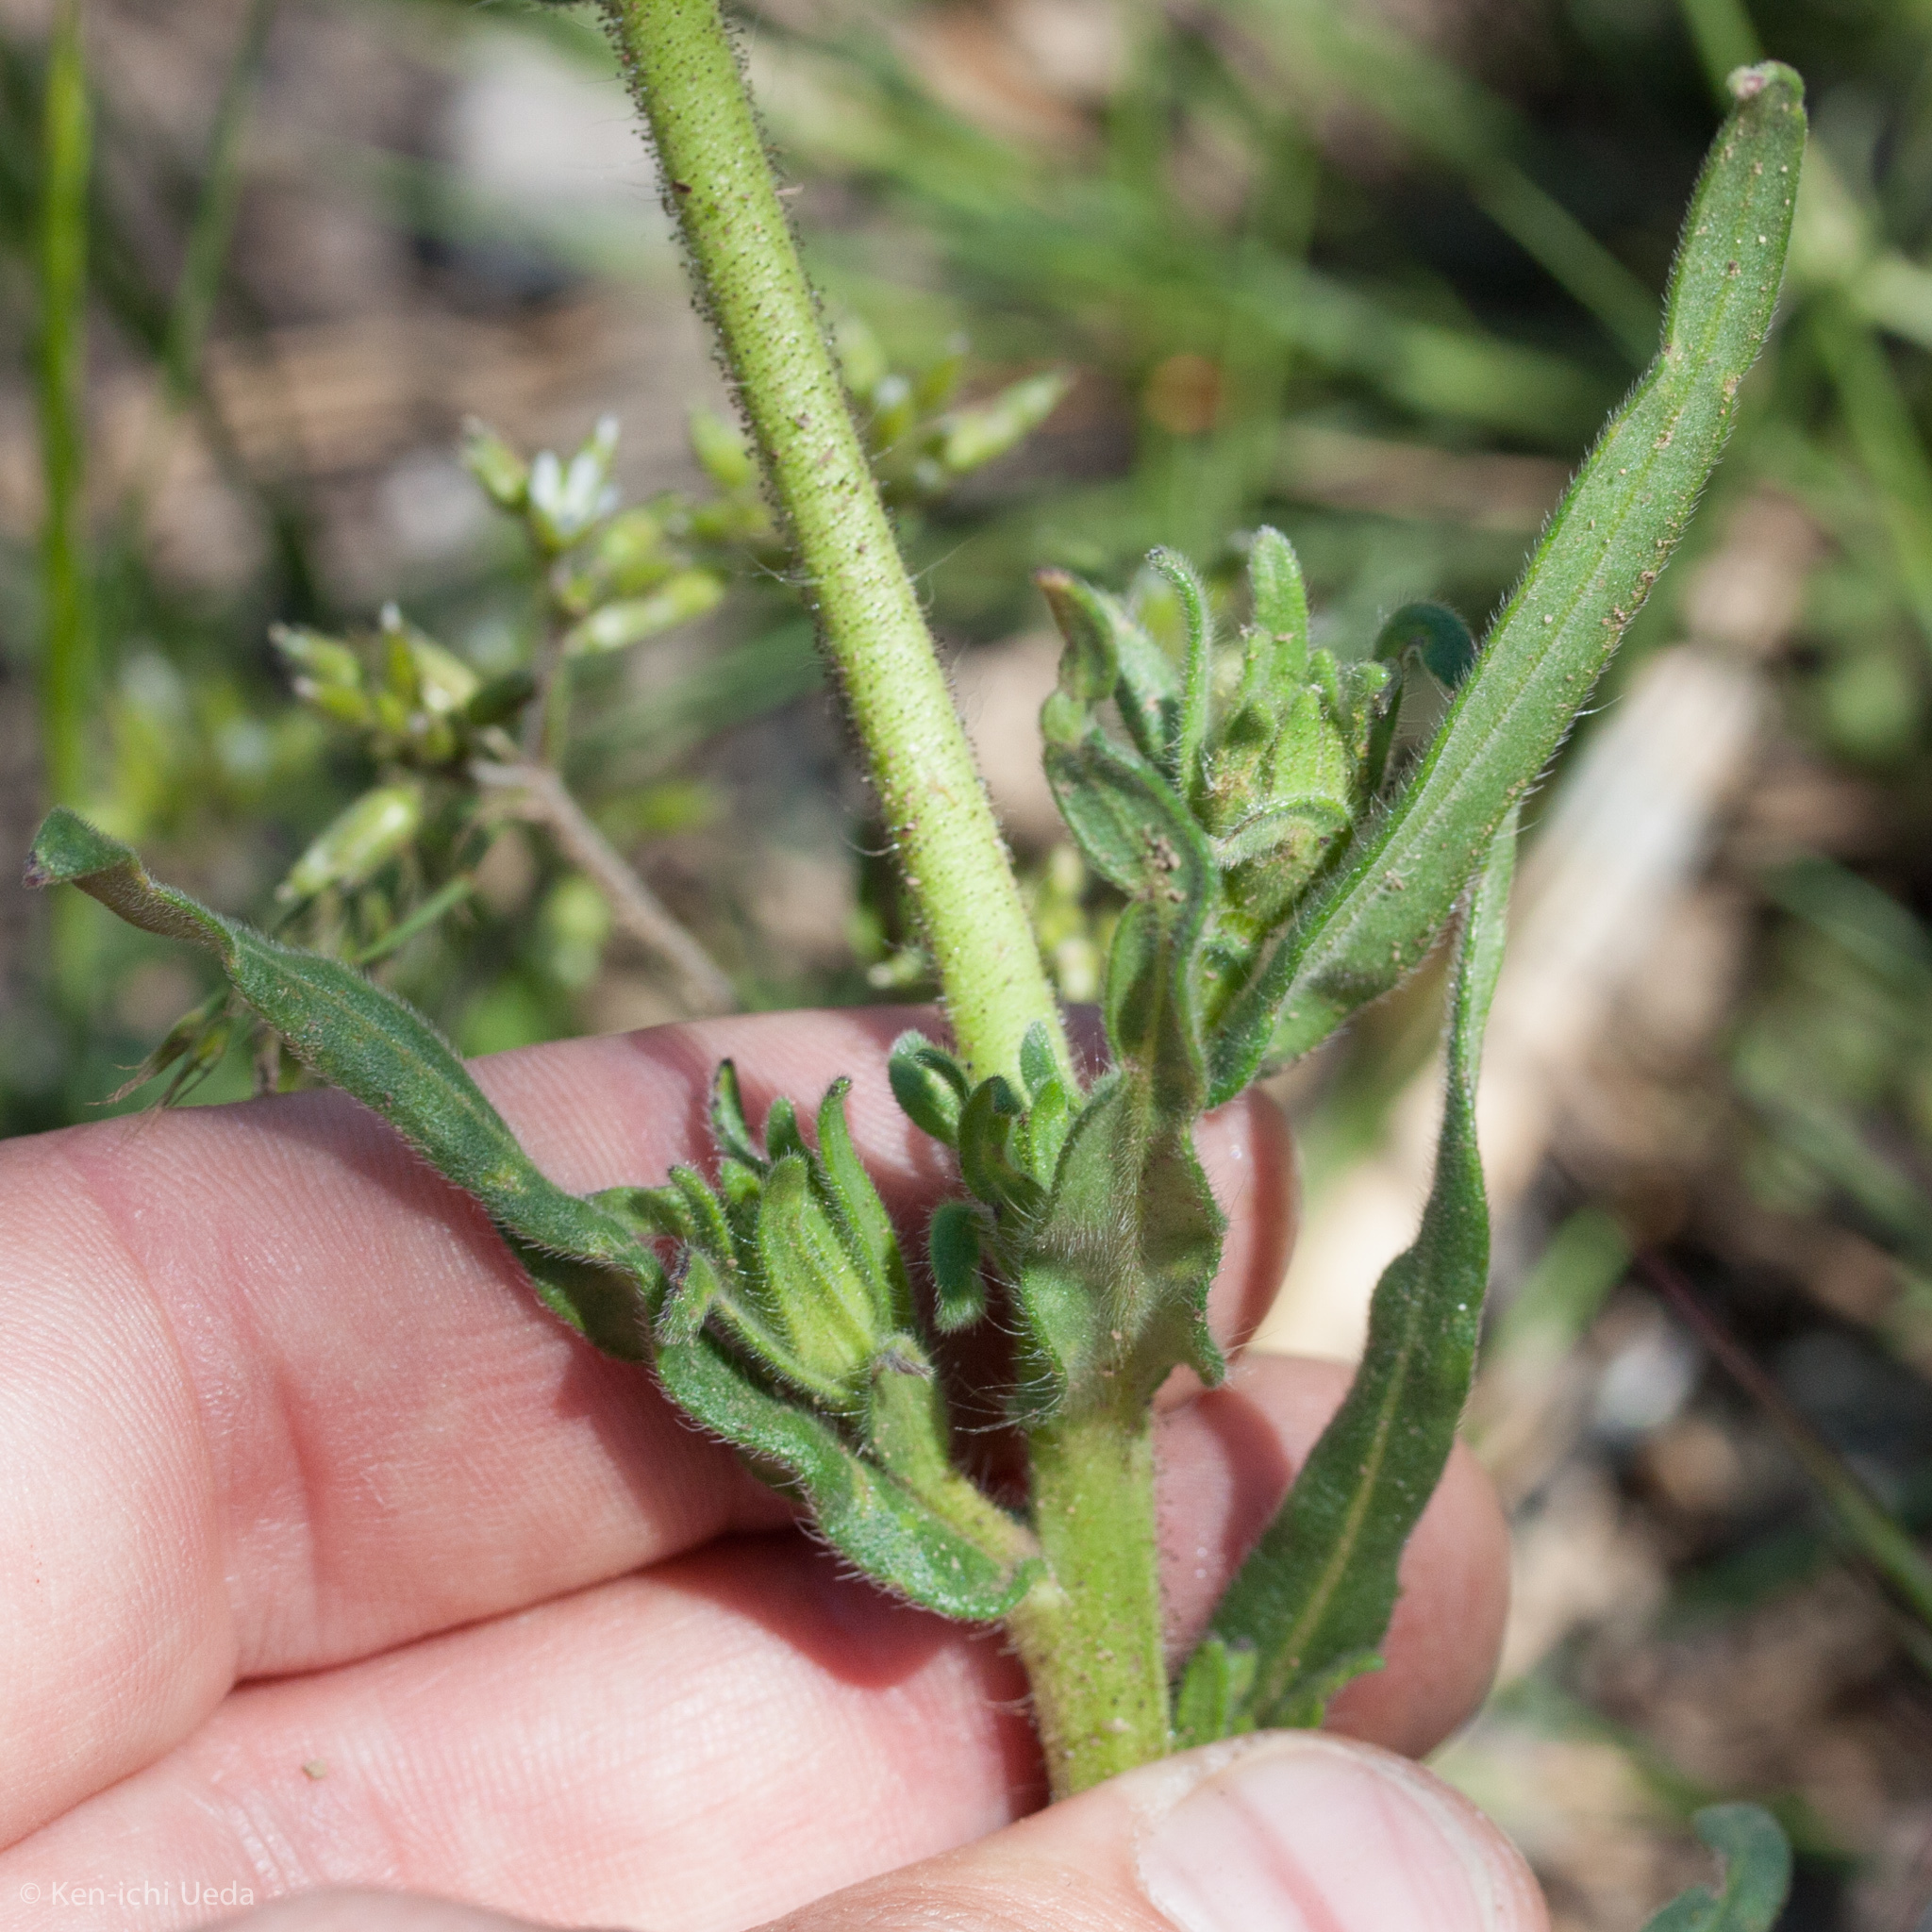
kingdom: Plantae
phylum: Tracheophyta
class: Magnoliopsida
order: Asterales
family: Asteraceae
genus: Madia
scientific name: Madia sativa
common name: Coast tarweed
